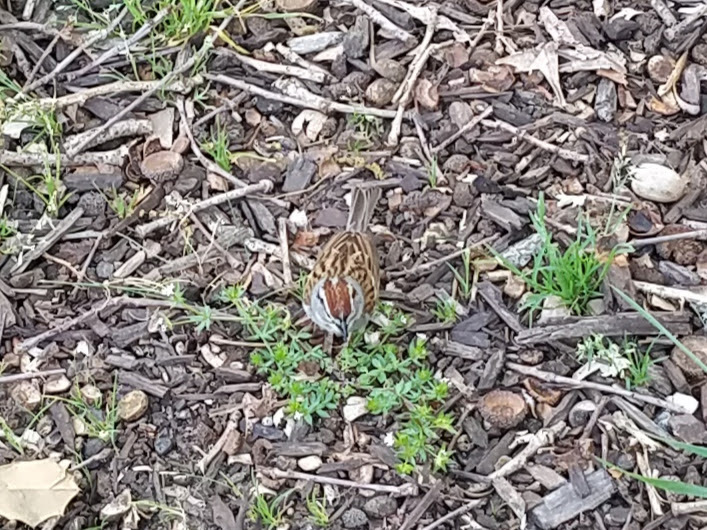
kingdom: Animalia
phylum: Chordata
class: Aves
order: Passeriformes
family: Passerellidae
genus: Spizella
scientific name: Spizella passerina
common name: Chipping sparrow
